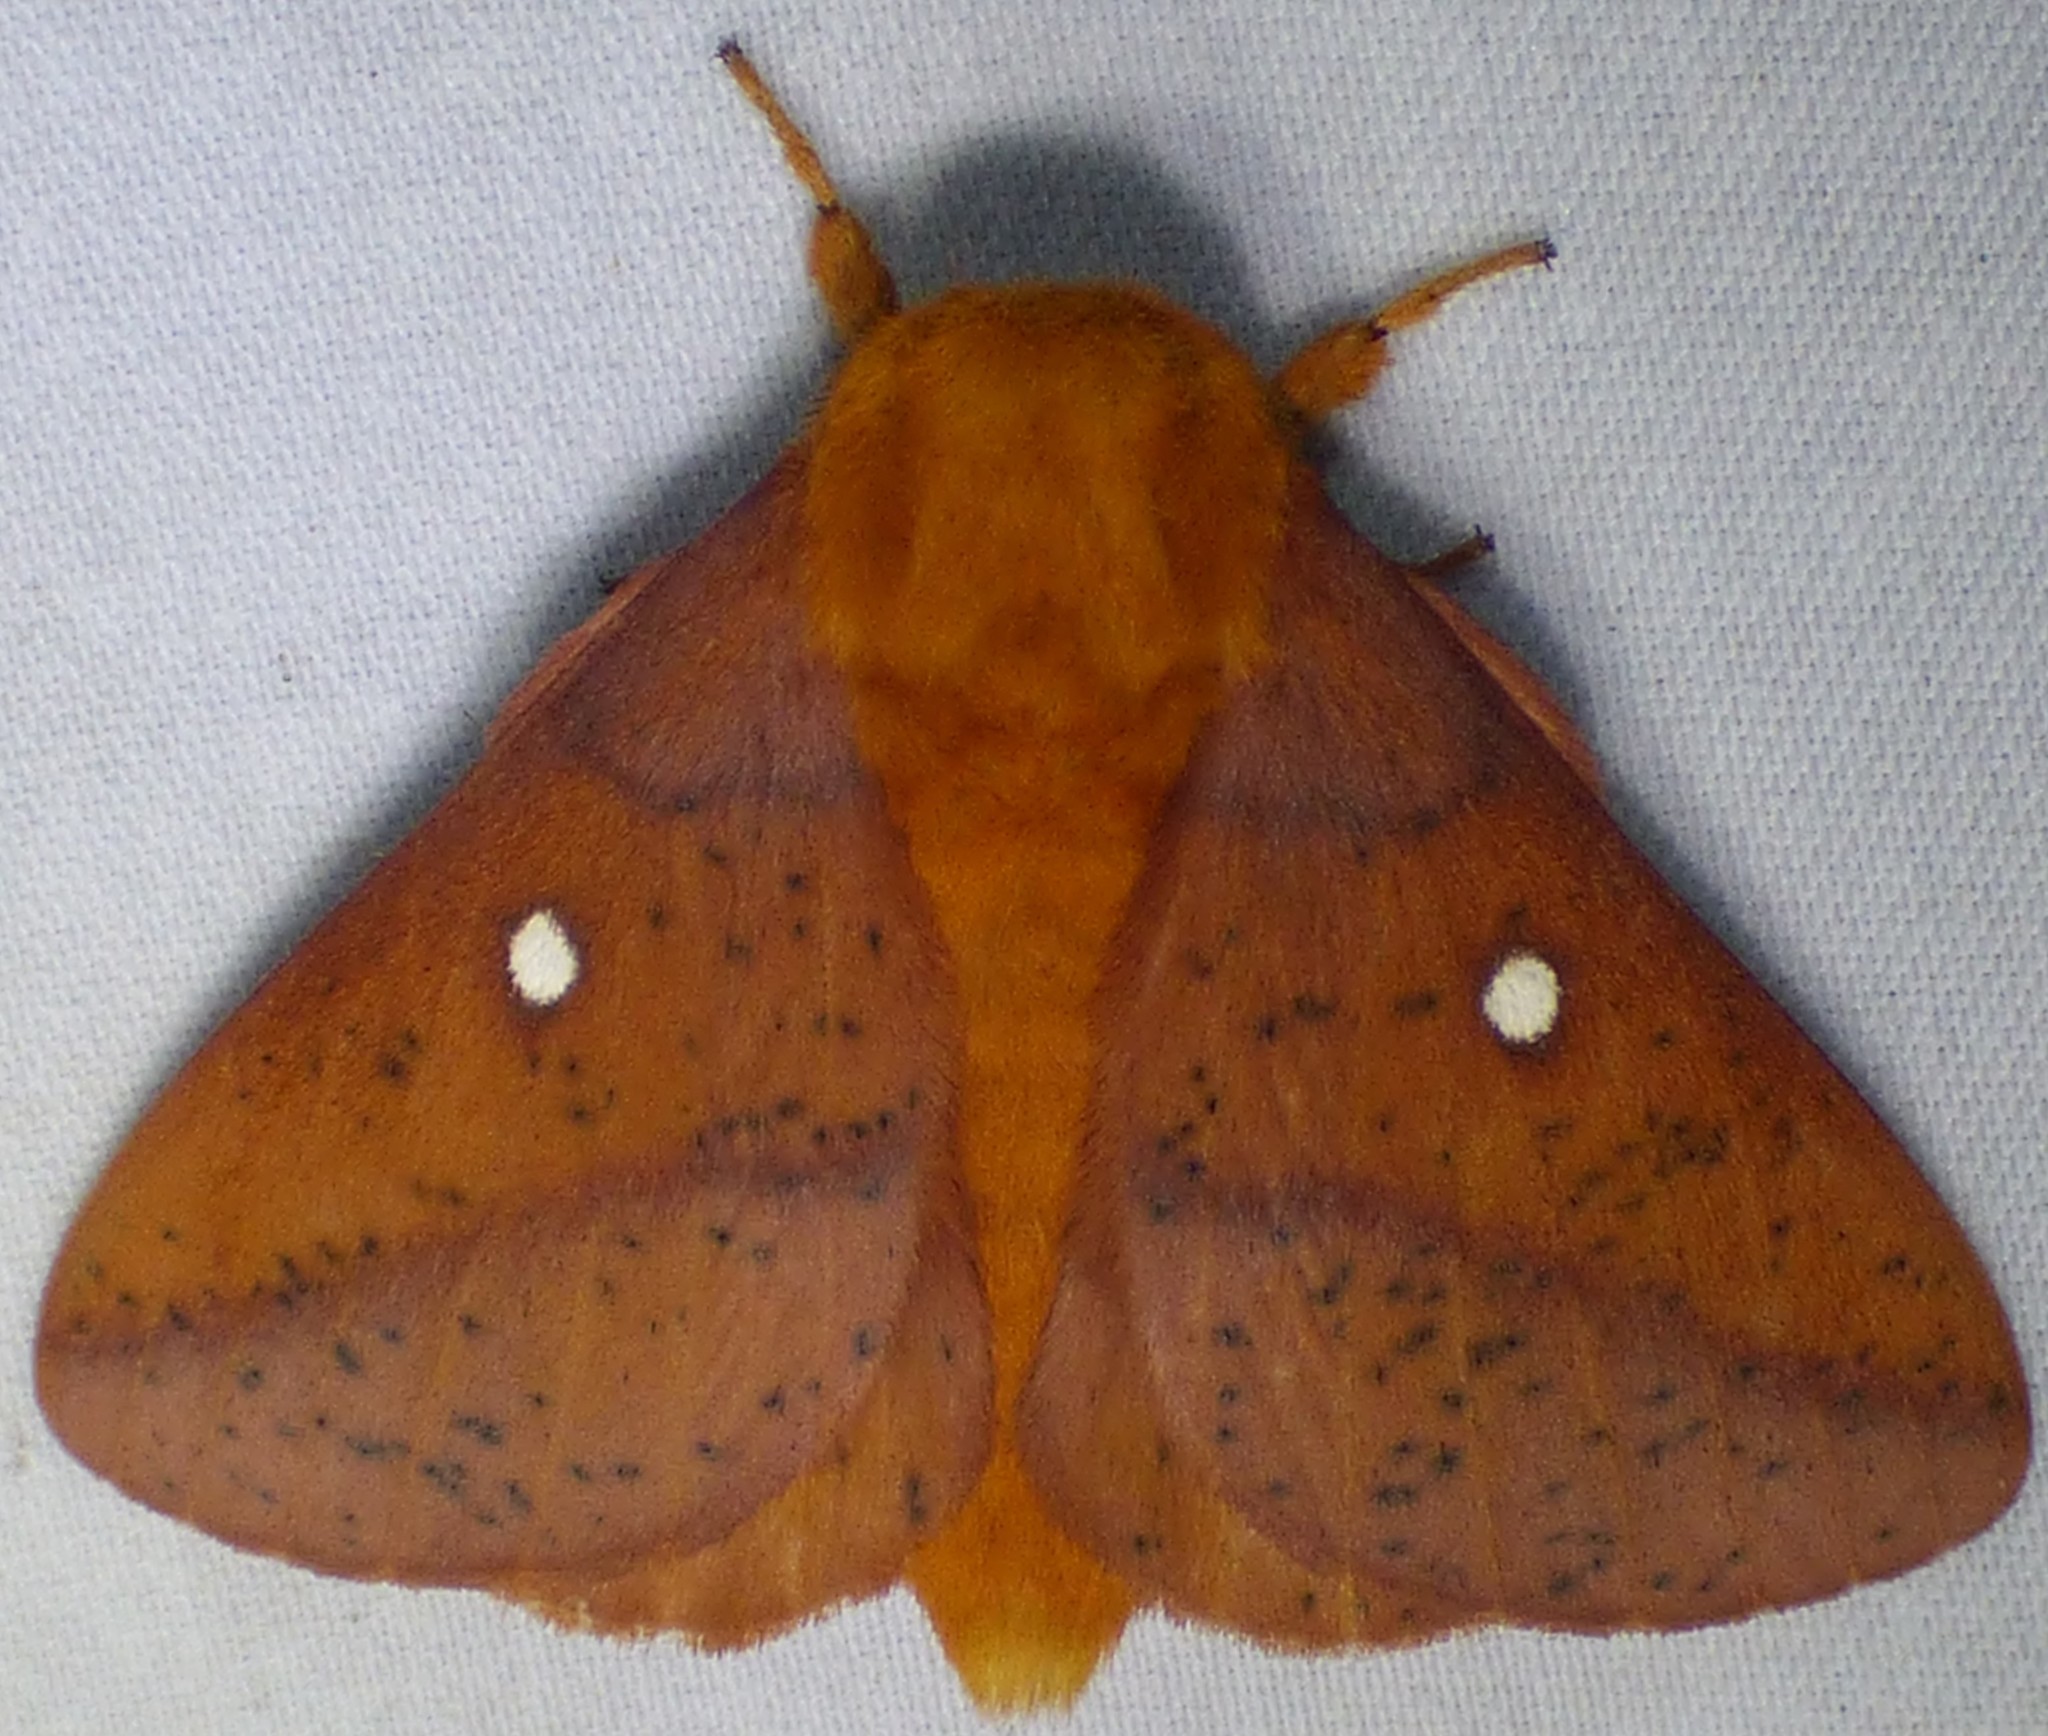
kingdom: Animalia
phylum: Arthropoda
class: Insecta
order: Lepidoptera
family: Saturniidae
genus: Anisota
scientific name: Anisota stigma
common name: Spiny oakworm moth
